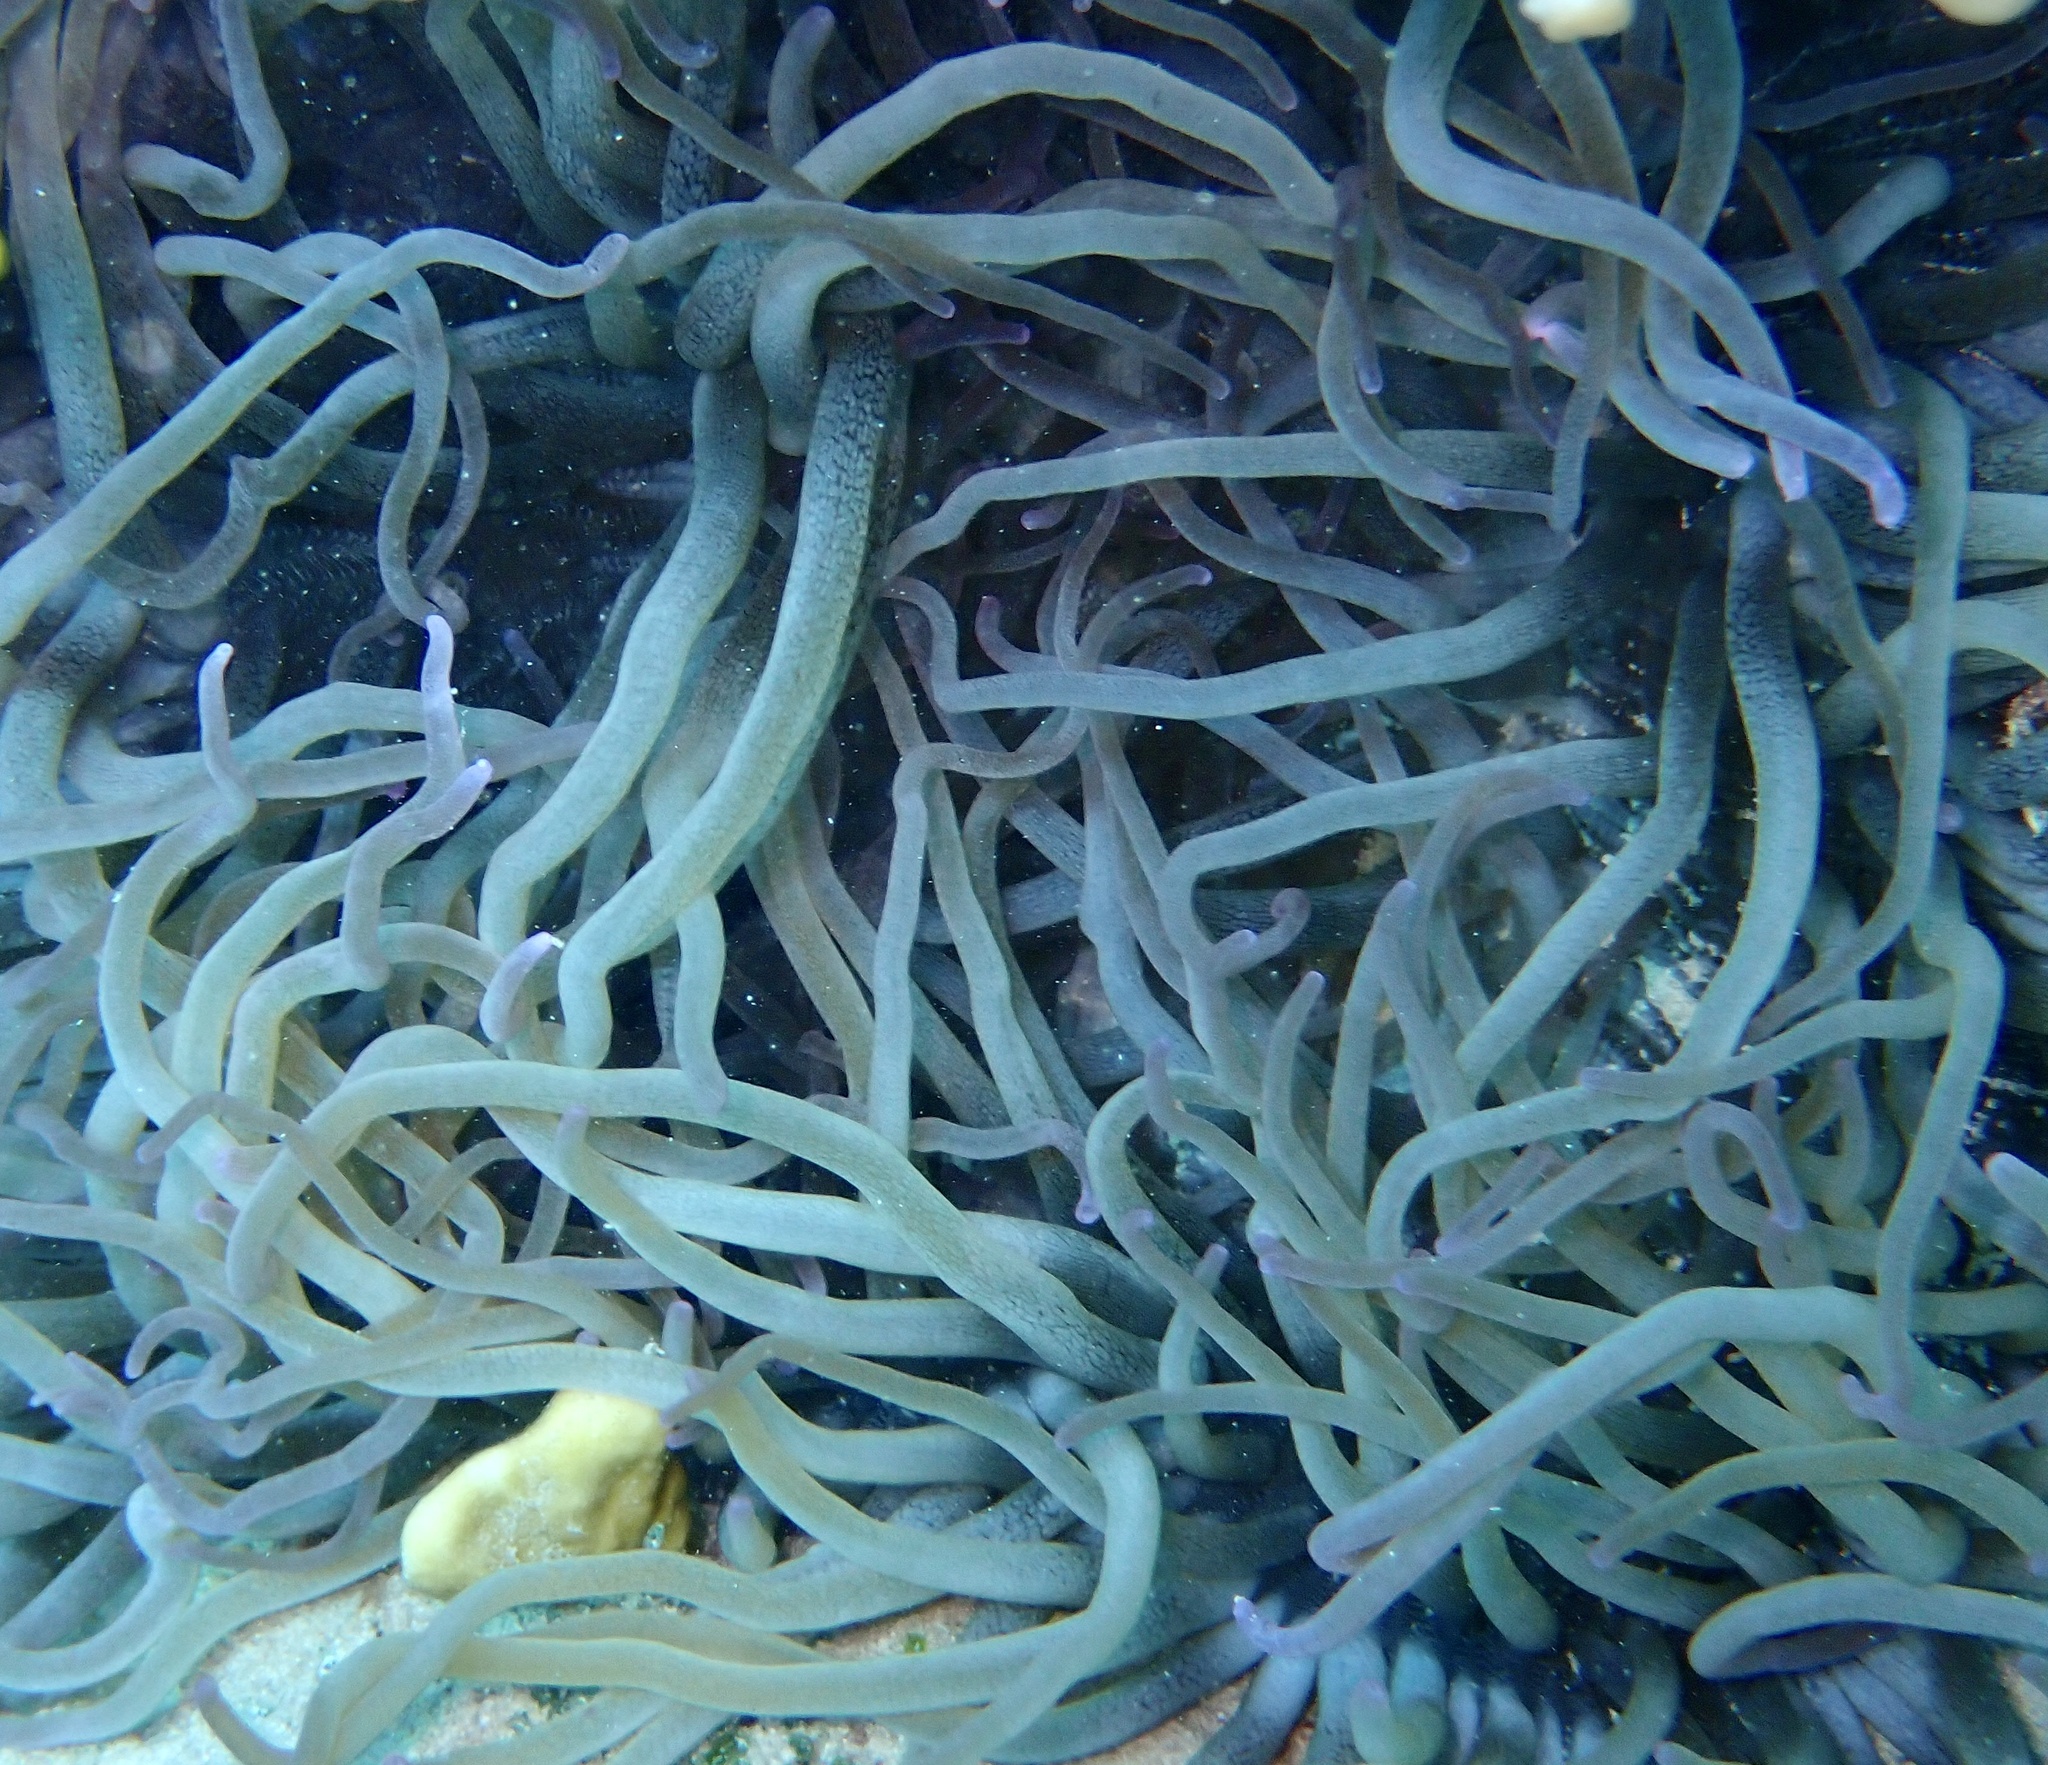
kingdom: Animalia
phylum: Cnidaria
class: Anthozoa
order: Actiniaria
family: Stichodactylidae
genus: Radianthus
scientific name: Radianthus crispa
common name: Leather anemone
